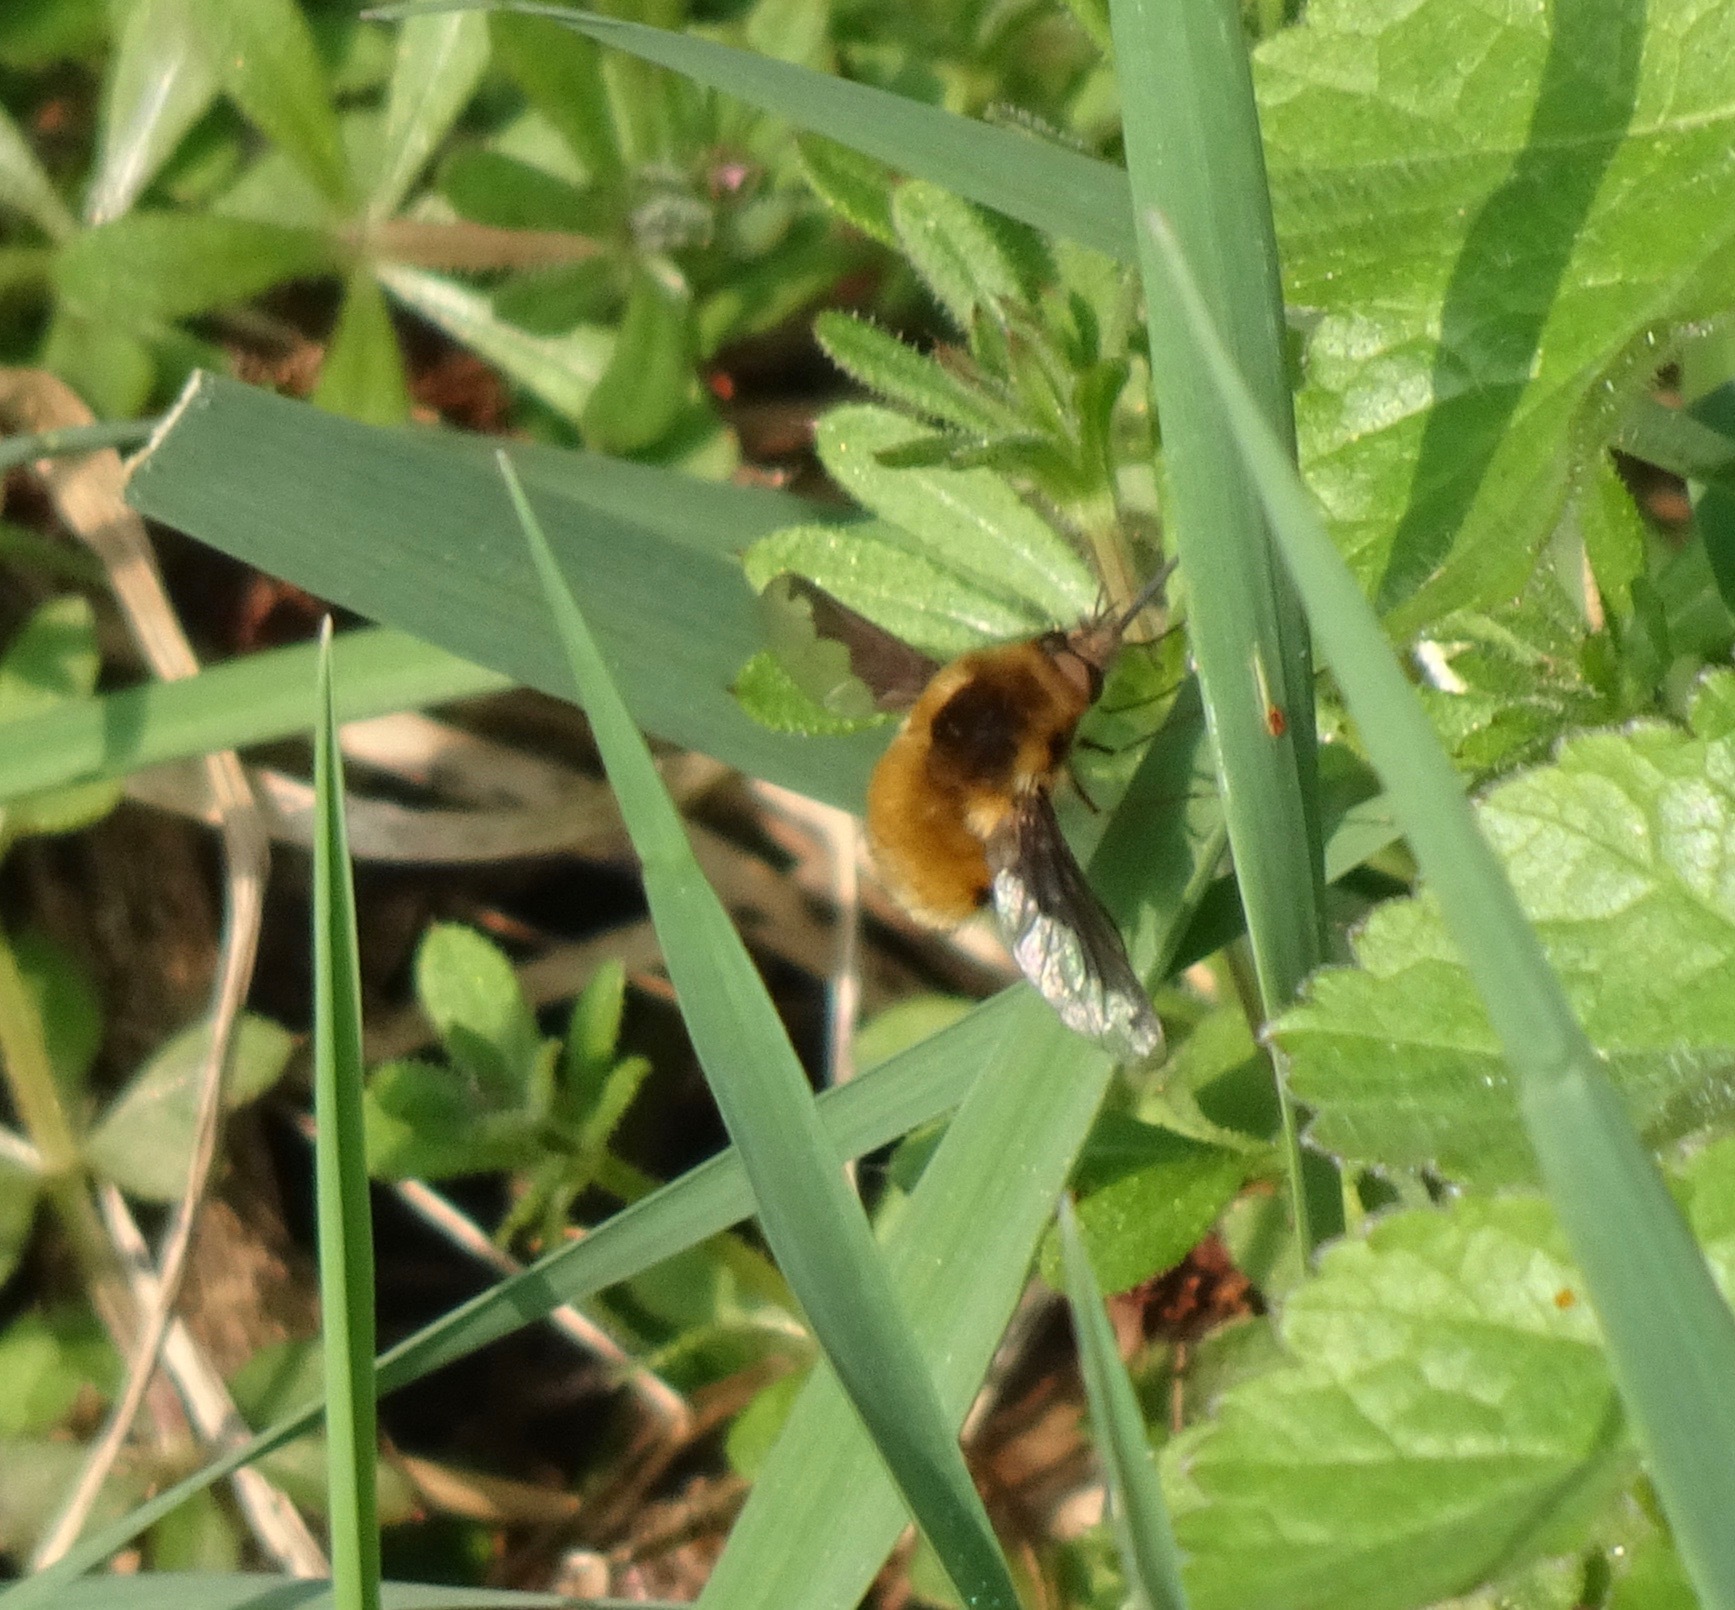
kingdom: Animalia
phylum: Arthropoda
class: Insecta
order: Diptera
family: Bombyliidae
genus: Bombylius
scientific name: Bombylius major
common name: Bee fly
